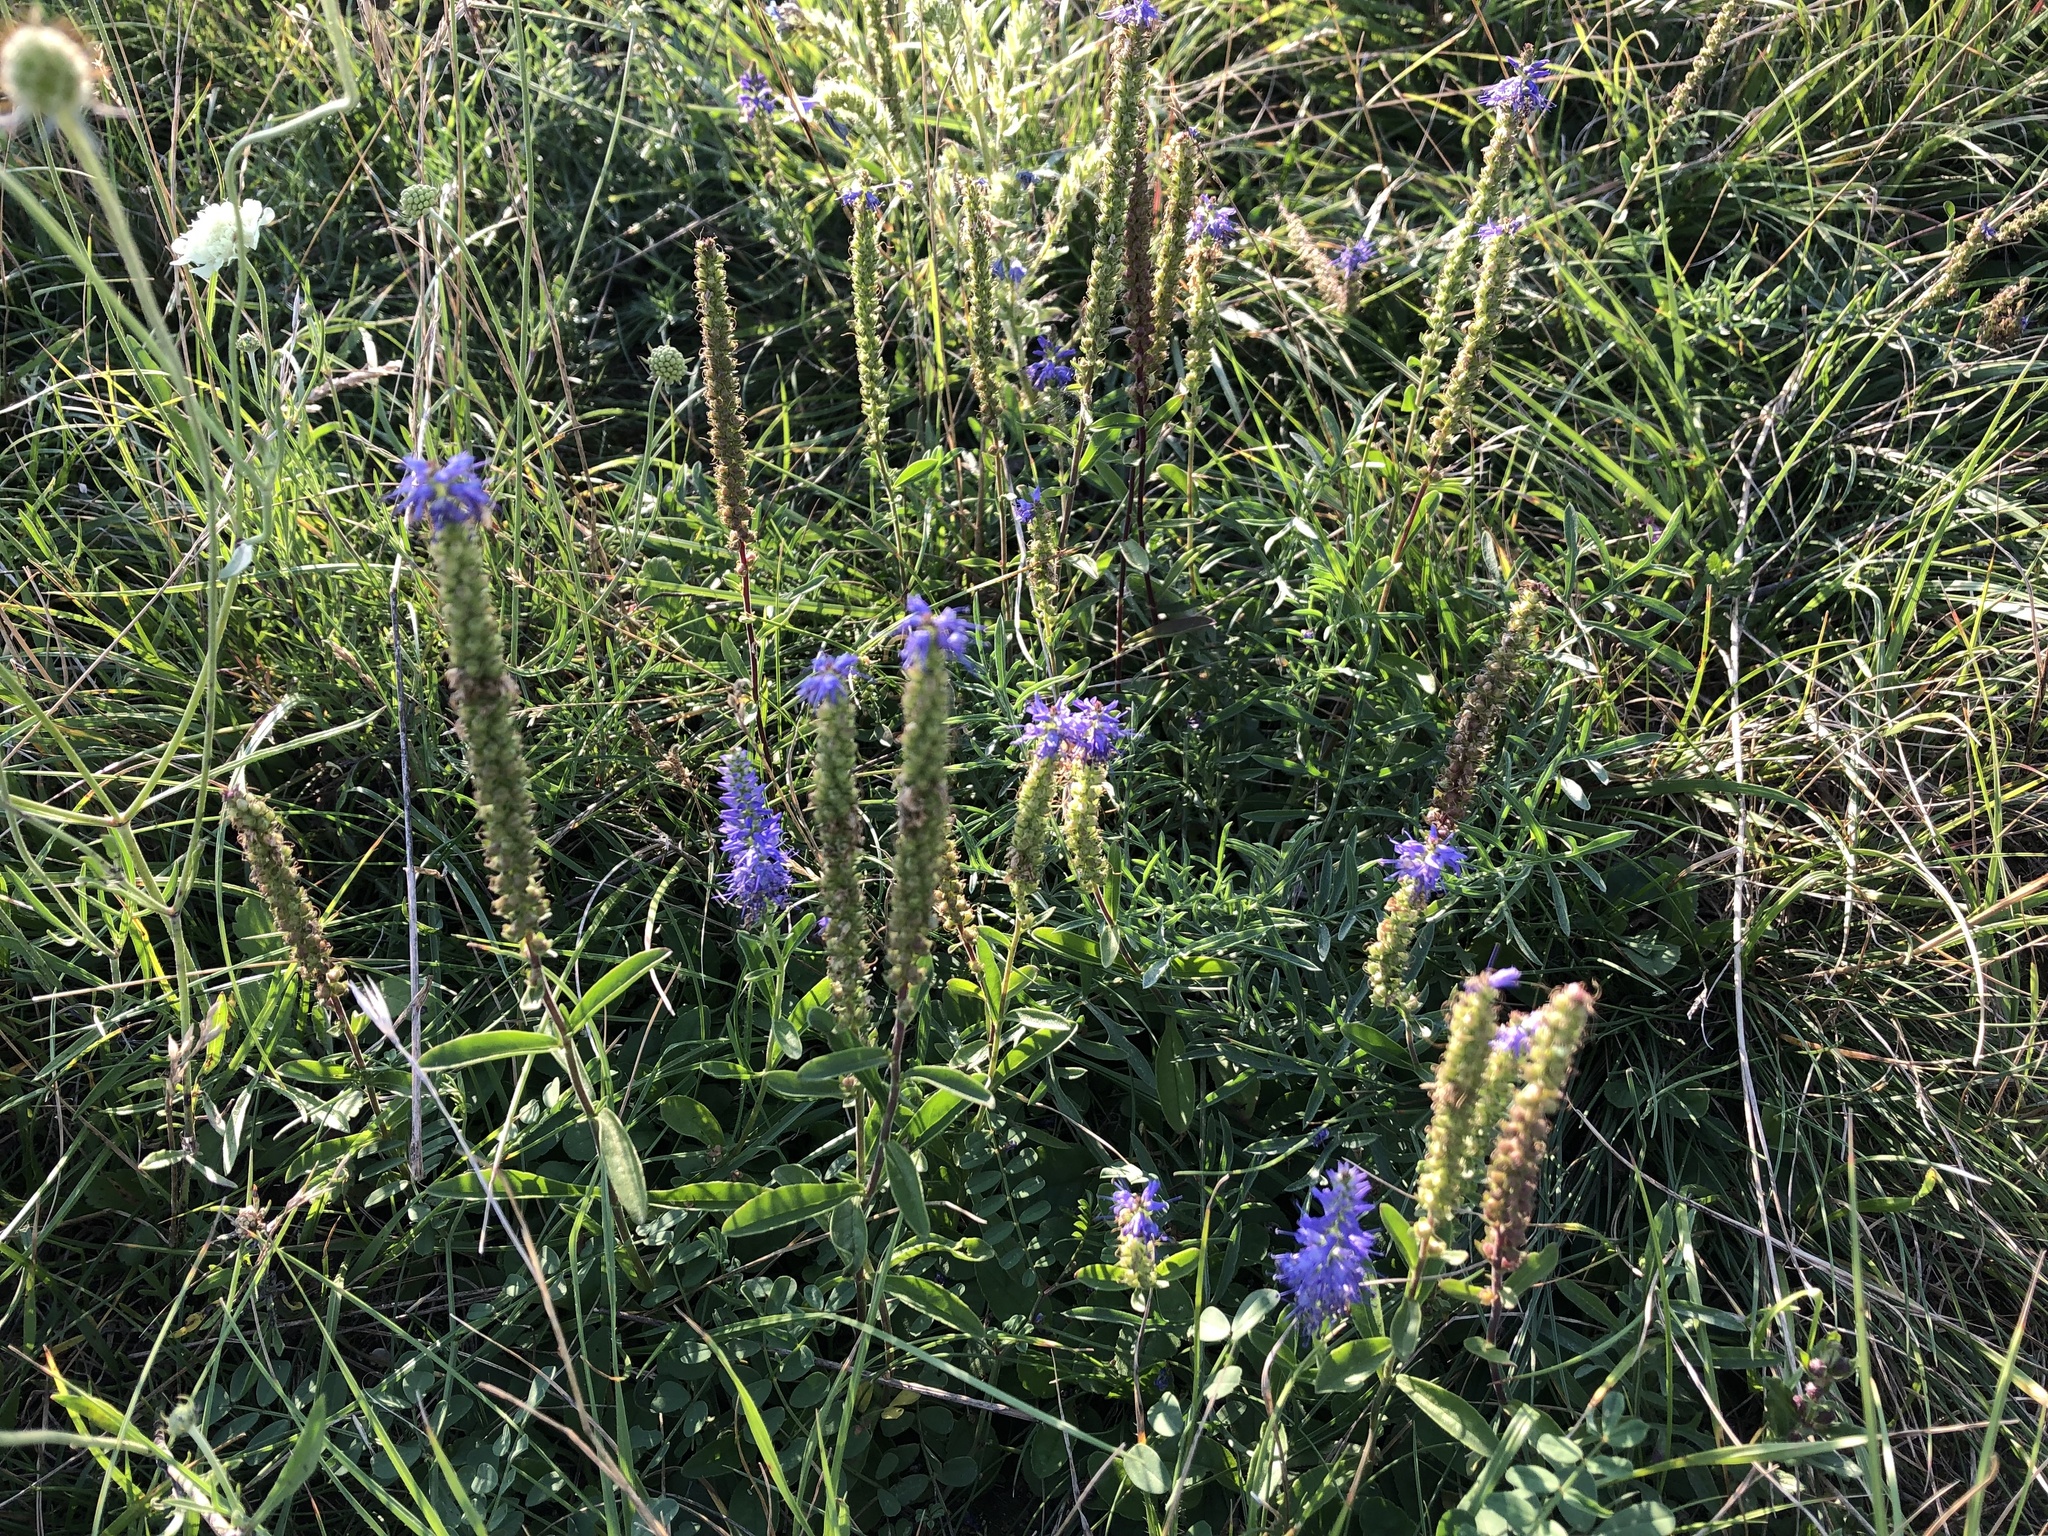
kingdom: Plantae
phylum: Tracheophyta
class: Magnoliopsida
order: Lamiales
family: Plantaginaceae
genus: Veronica
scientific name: Veronica spicata
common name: Spiked speedwell
